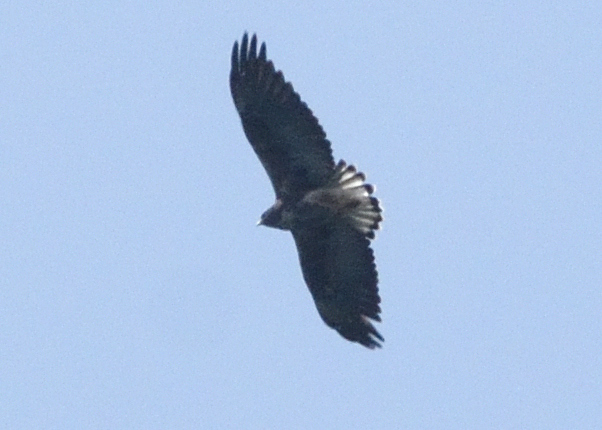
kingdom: Animalia
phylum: Chordata
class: Aves
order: Accipitriformes
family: Accipitridae
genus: Buteo
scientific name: Buteo polyosoma
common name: Variable hawk
